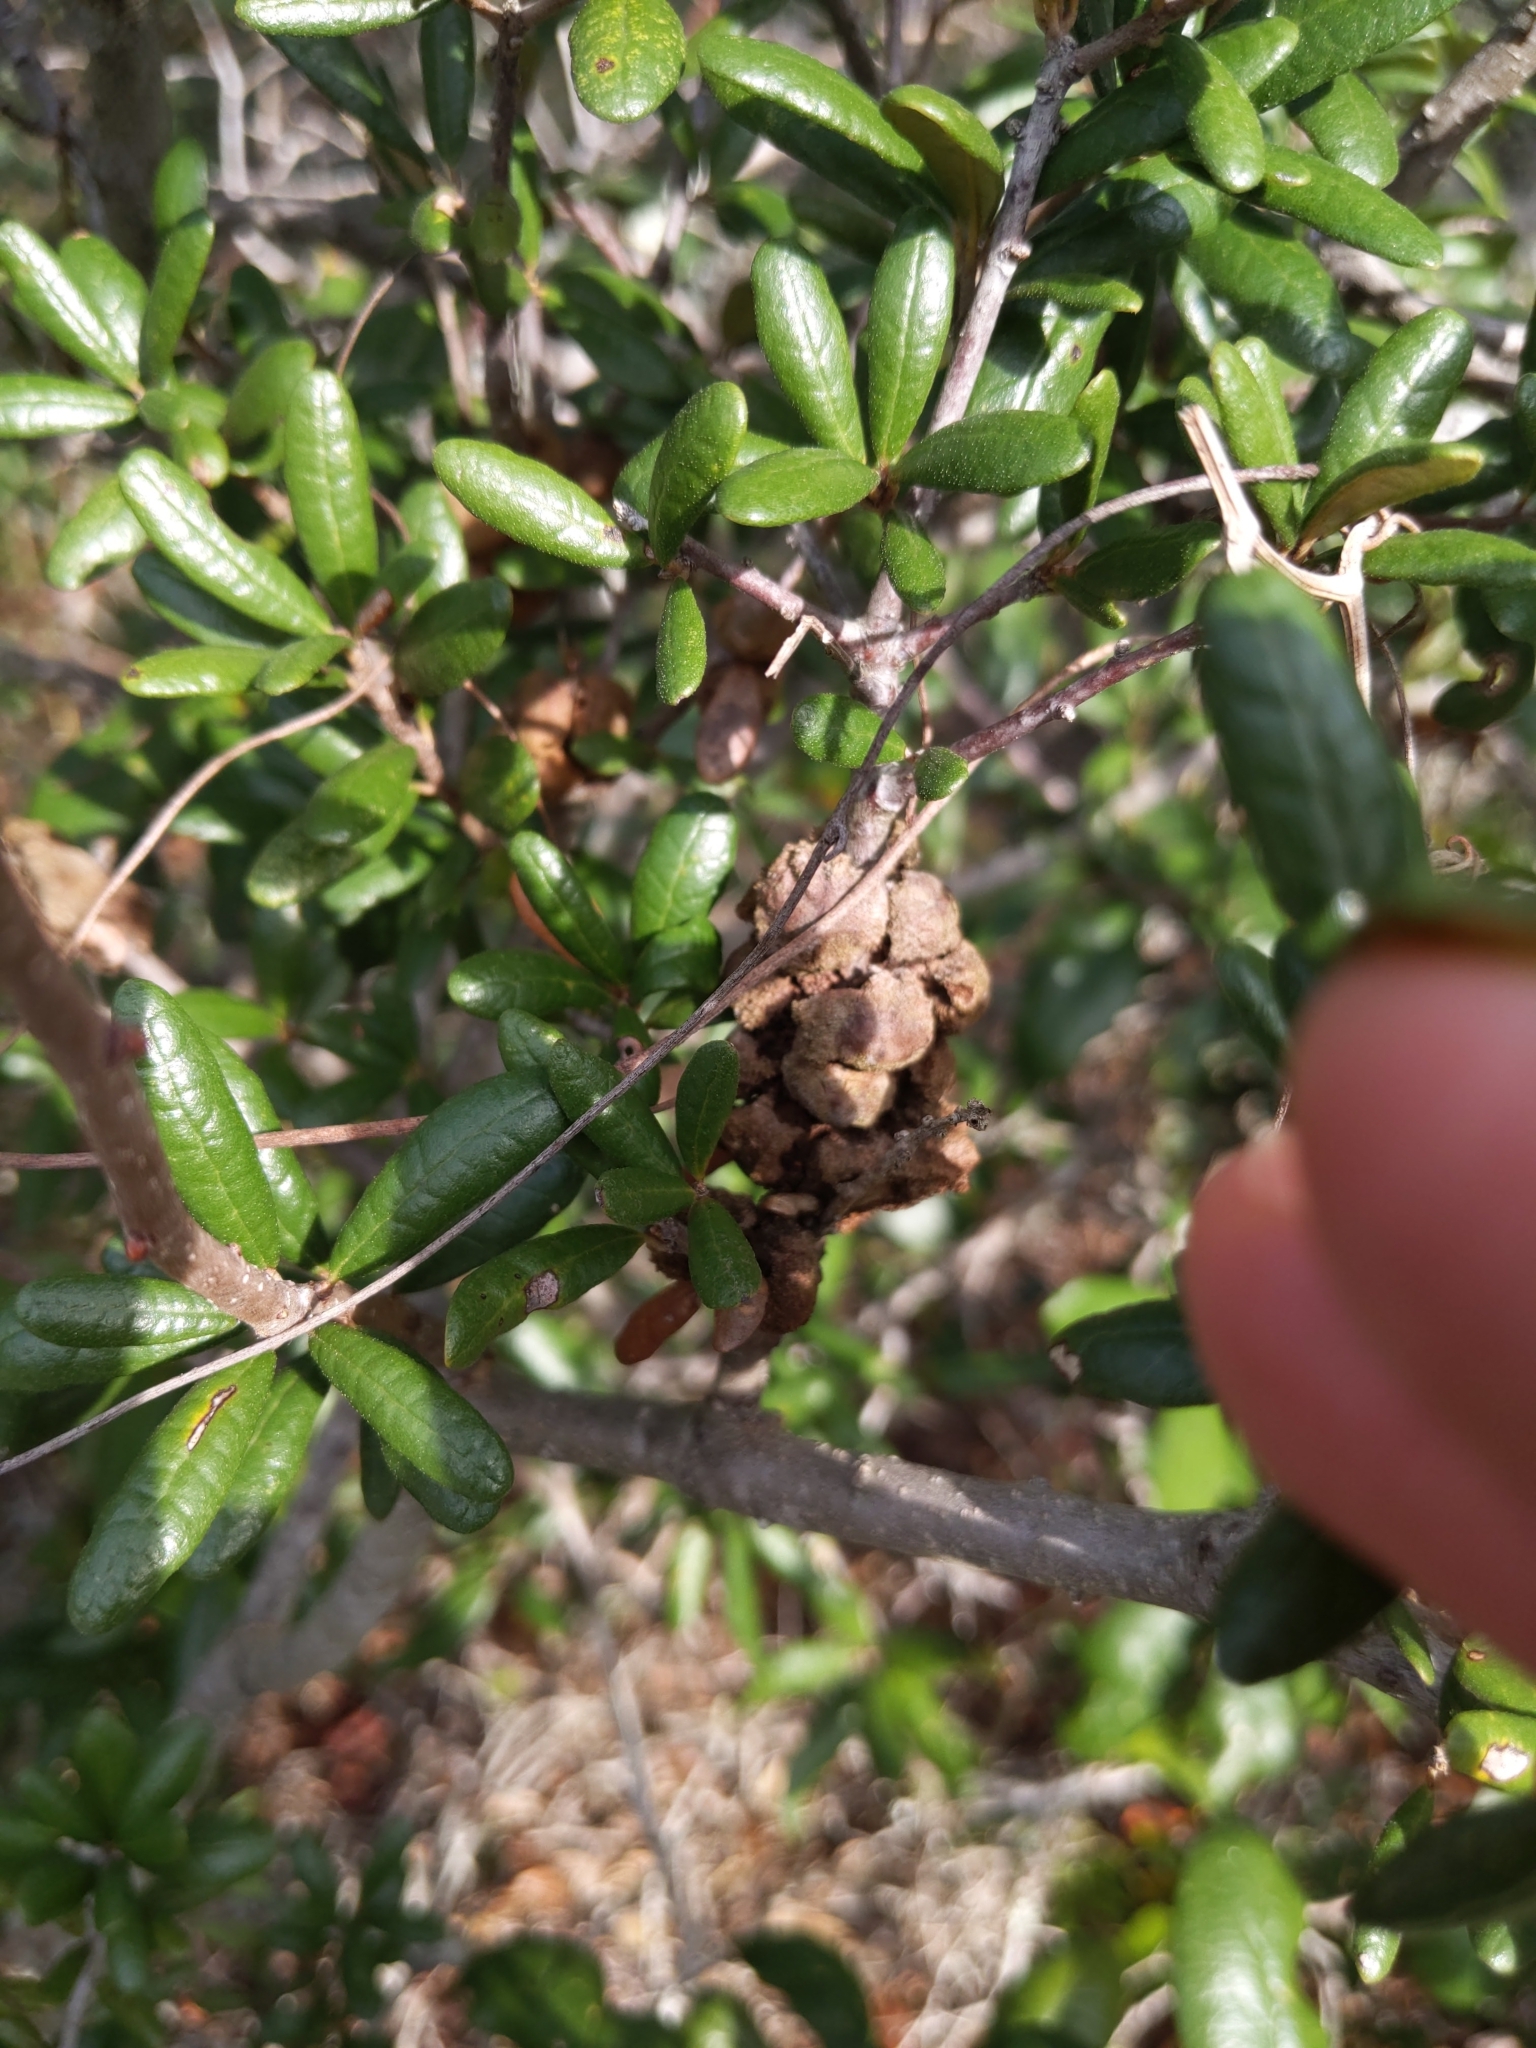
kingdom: Animalia
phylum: Arthropoda
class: Insecta
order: Hymenoptera
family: Cynipidae
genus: Disholcaspis
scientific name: Disholcaspis
